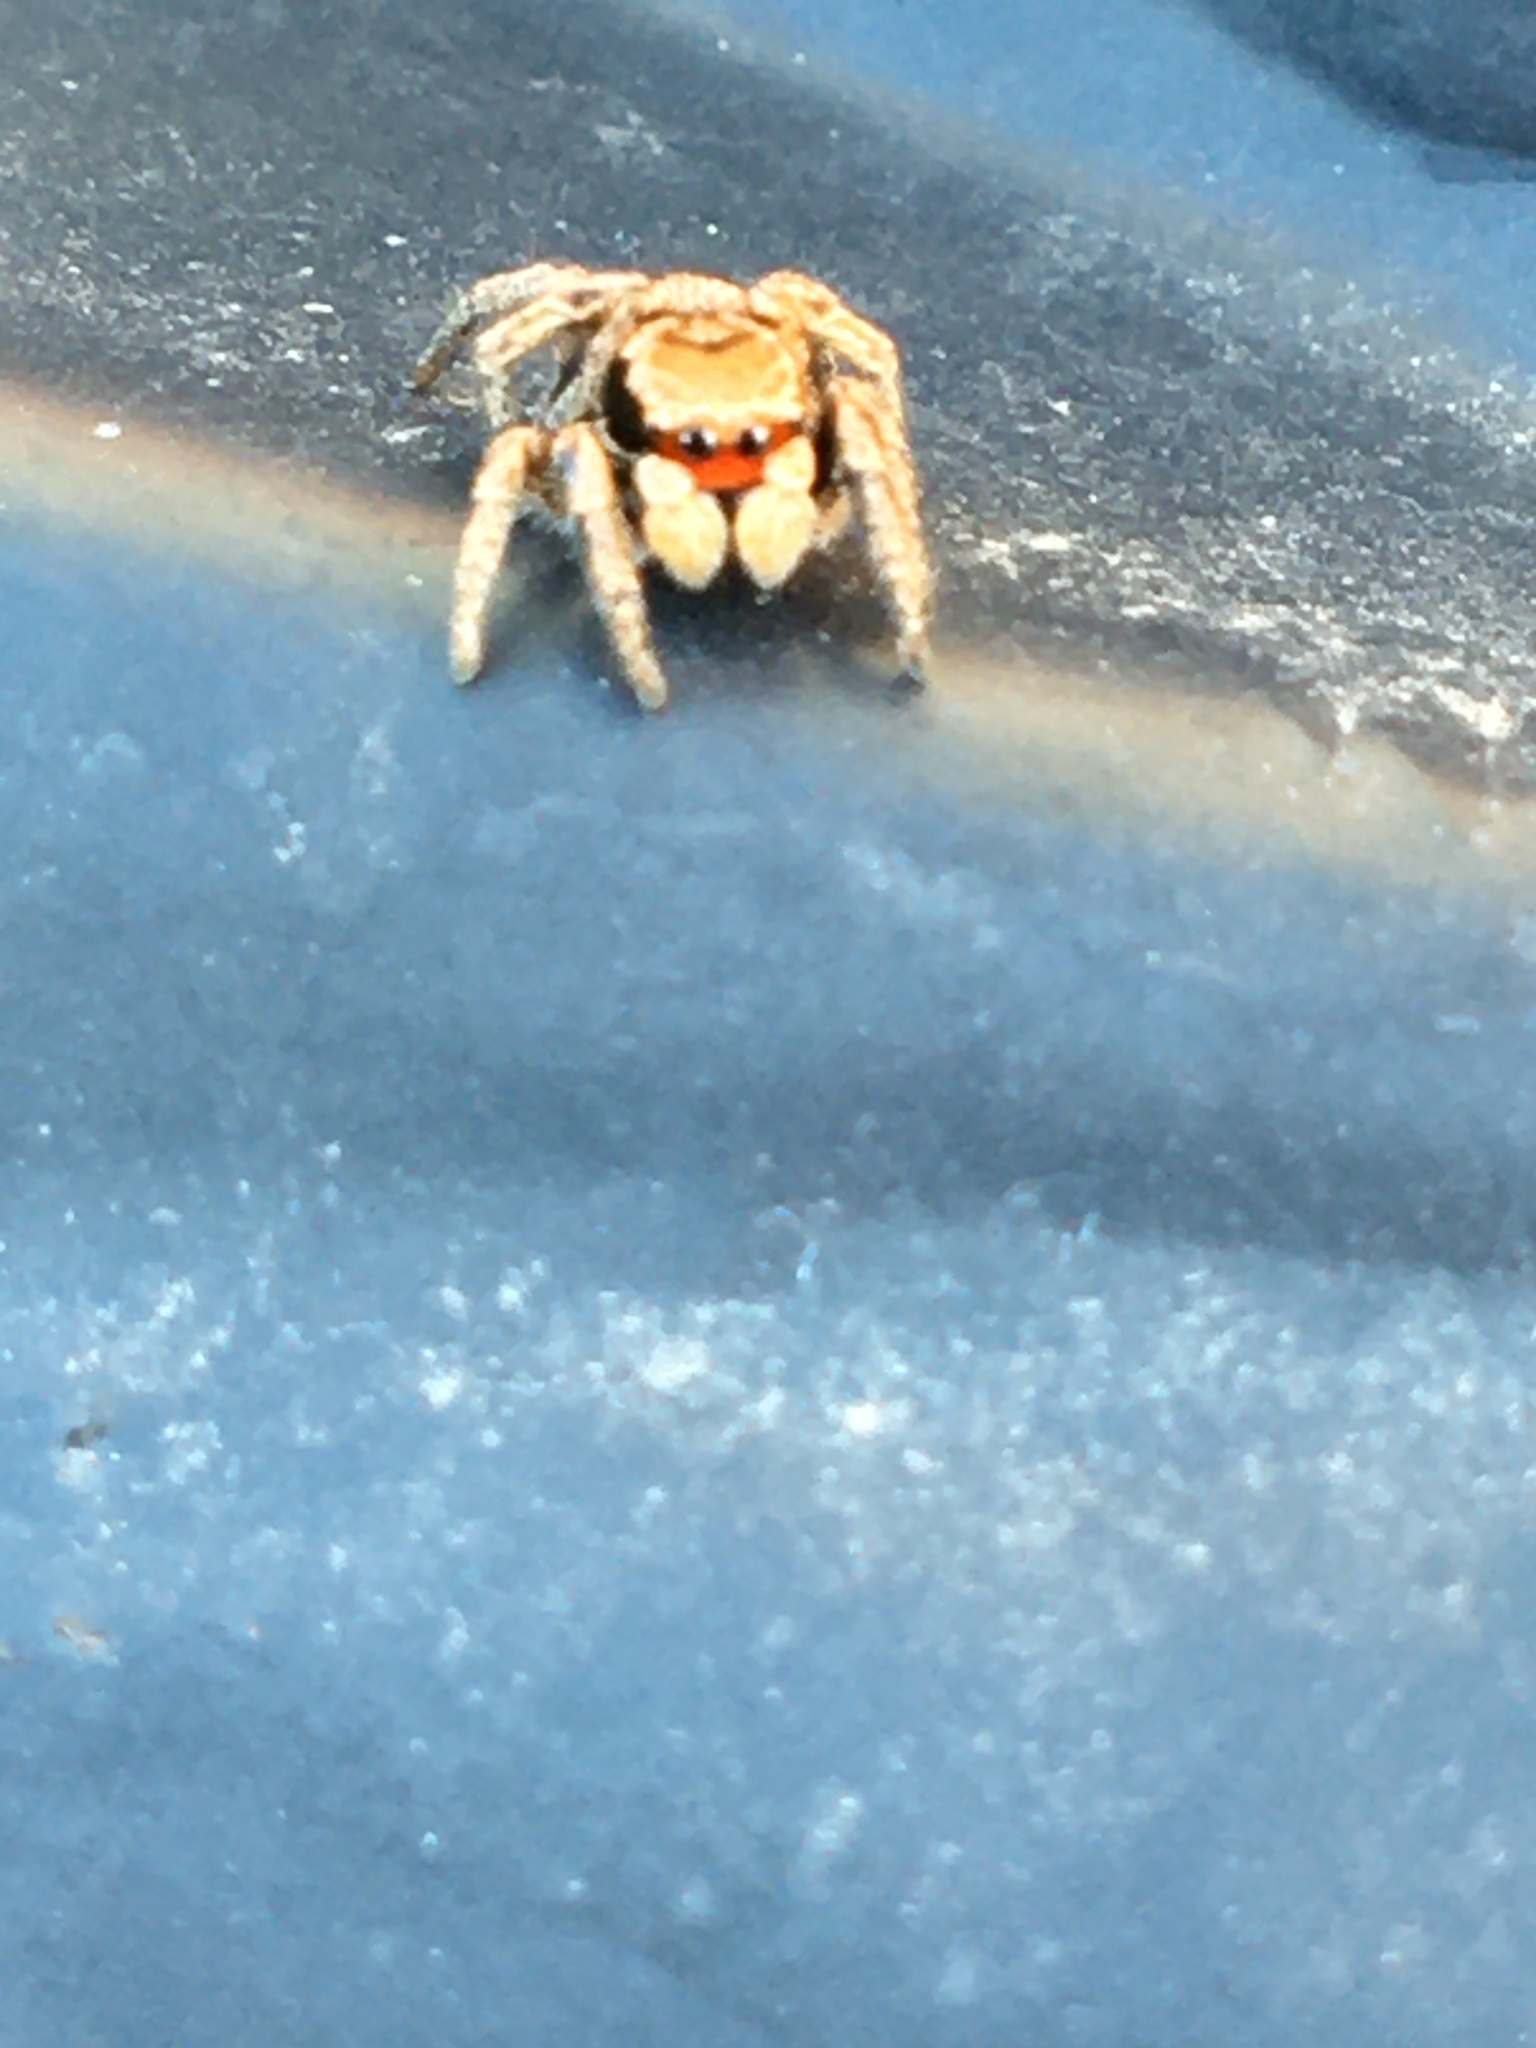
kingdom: Animalia
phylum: Arthropoda
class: Arachnida
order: Araneae
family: Salticidae
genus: Habronattus
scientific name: Habronattus borealis
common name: Boreal paradise spider
